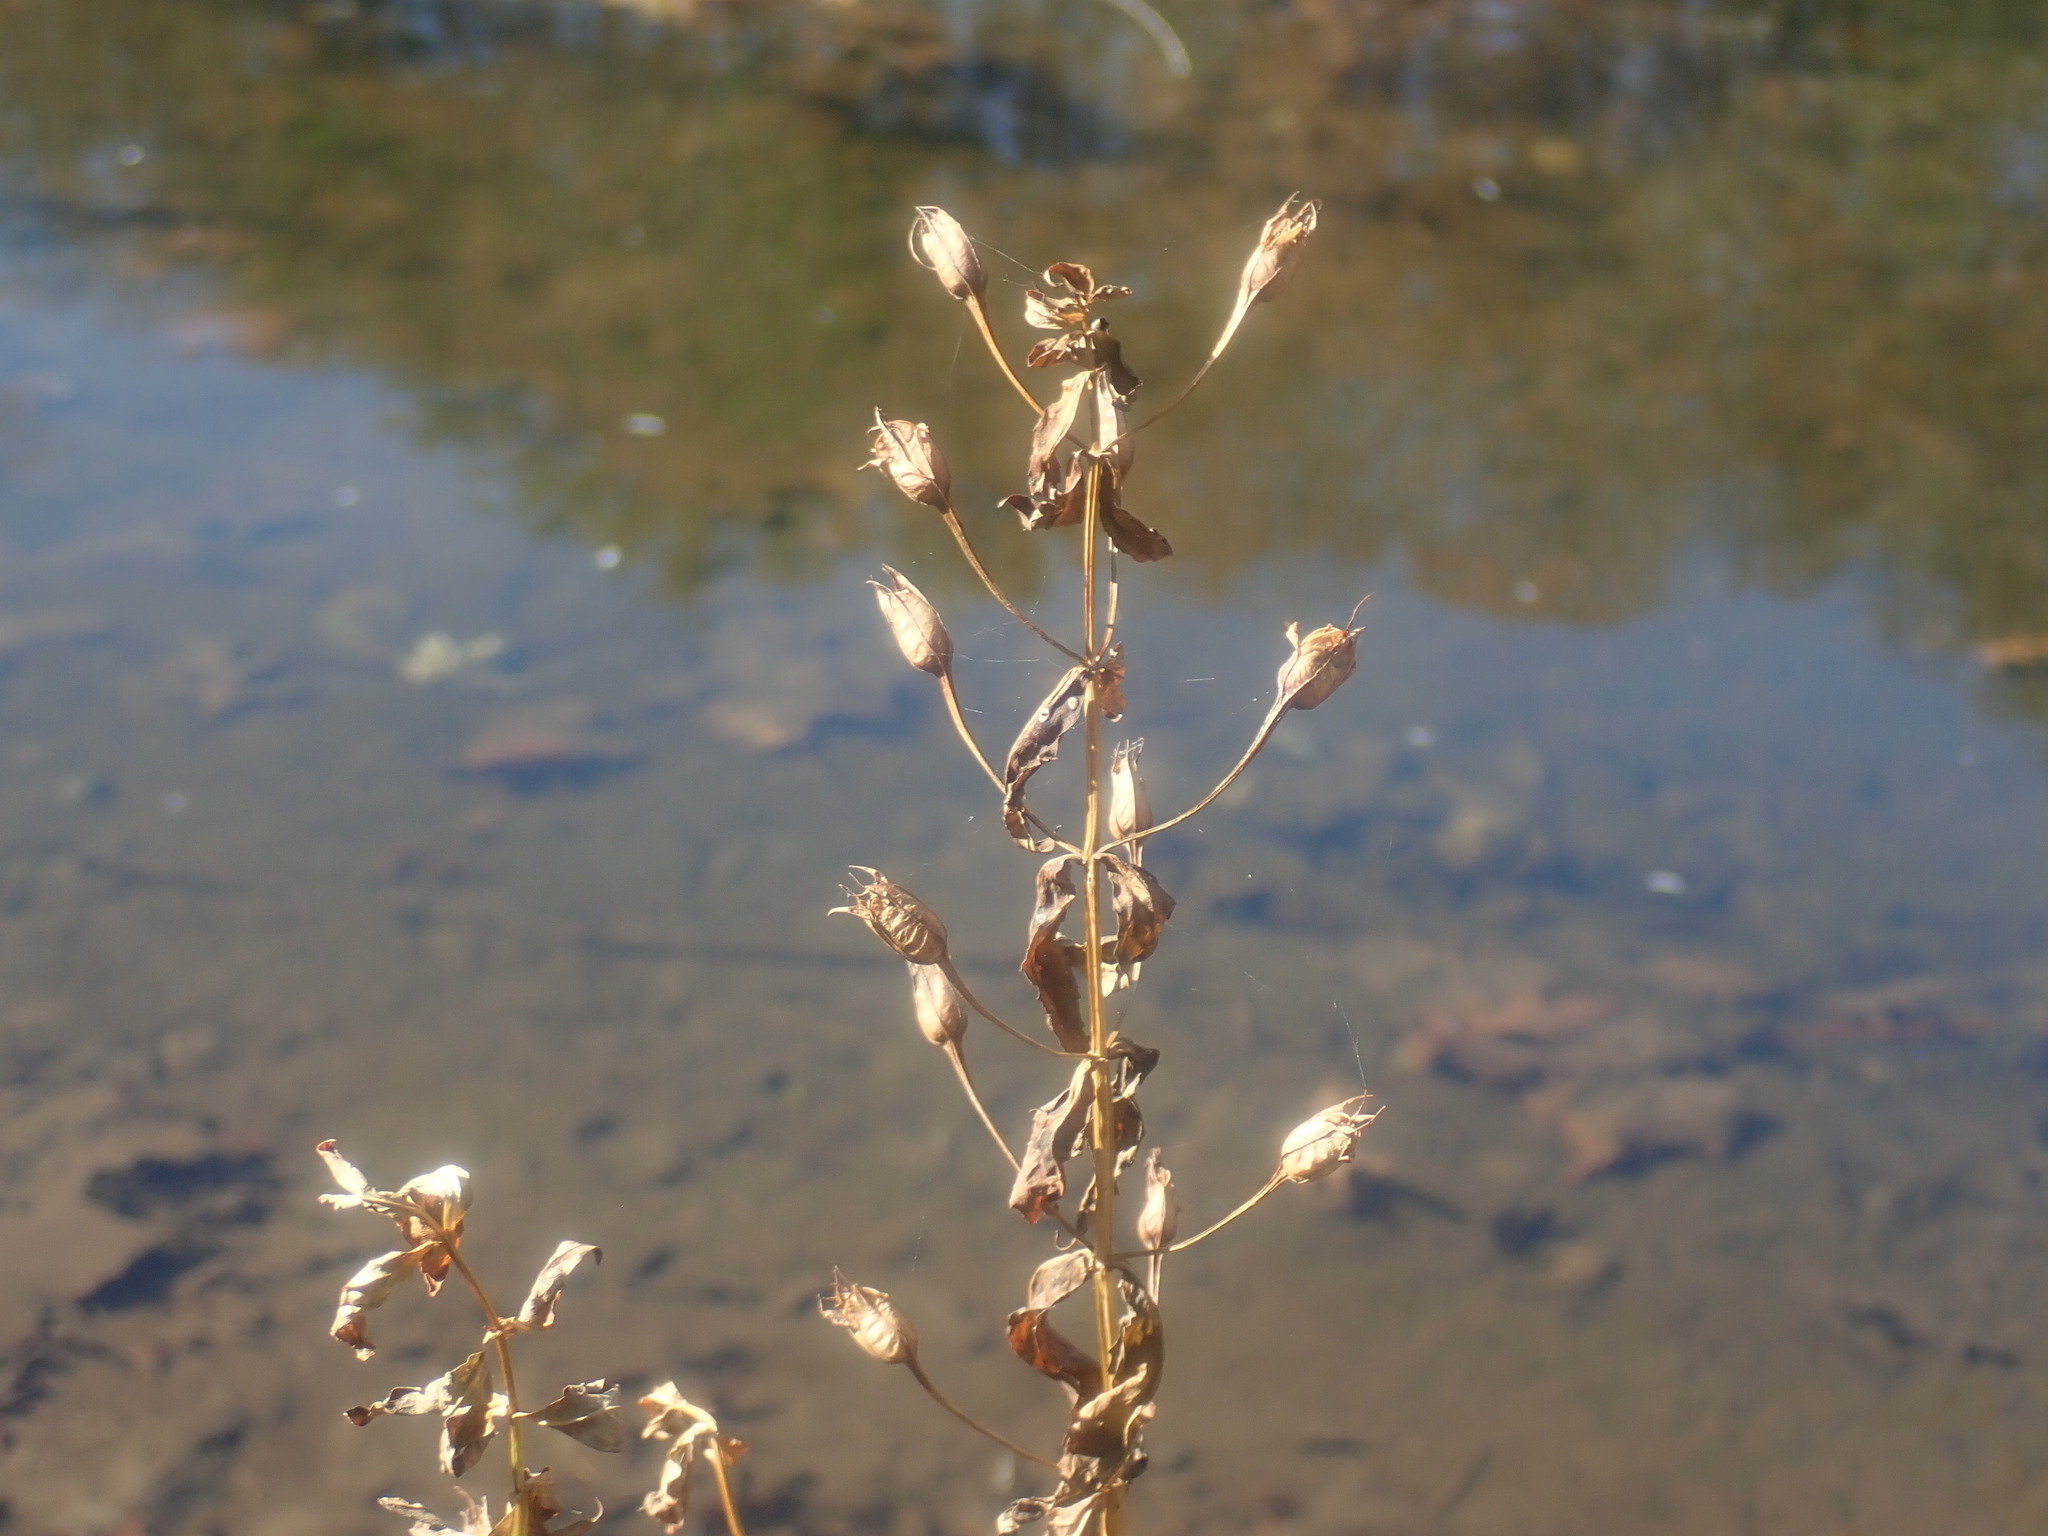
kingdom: Plantae
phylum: Tracheophyta
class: Magnoliopsida
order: Lamiales
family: Phrymaceae
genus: Mimulus
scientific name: Mimulus ringens
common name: Allegheny monkeyflower
